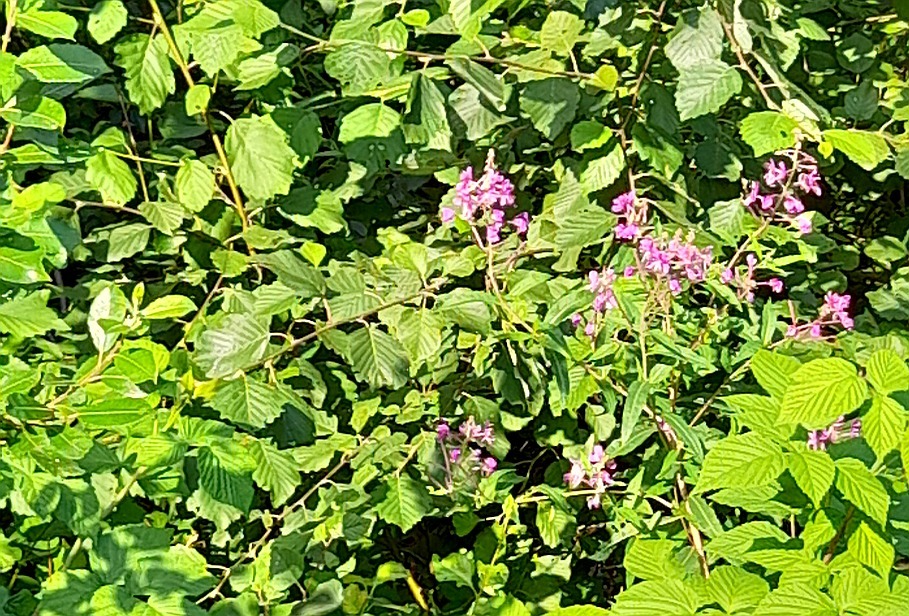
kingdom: Plantae
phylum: Tracheophyta
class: Magnoliopsida
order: Myrtales
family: Onagraceae
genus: Chamaenerion
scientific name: Chamaenerion angustifolium
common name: Fireweed
